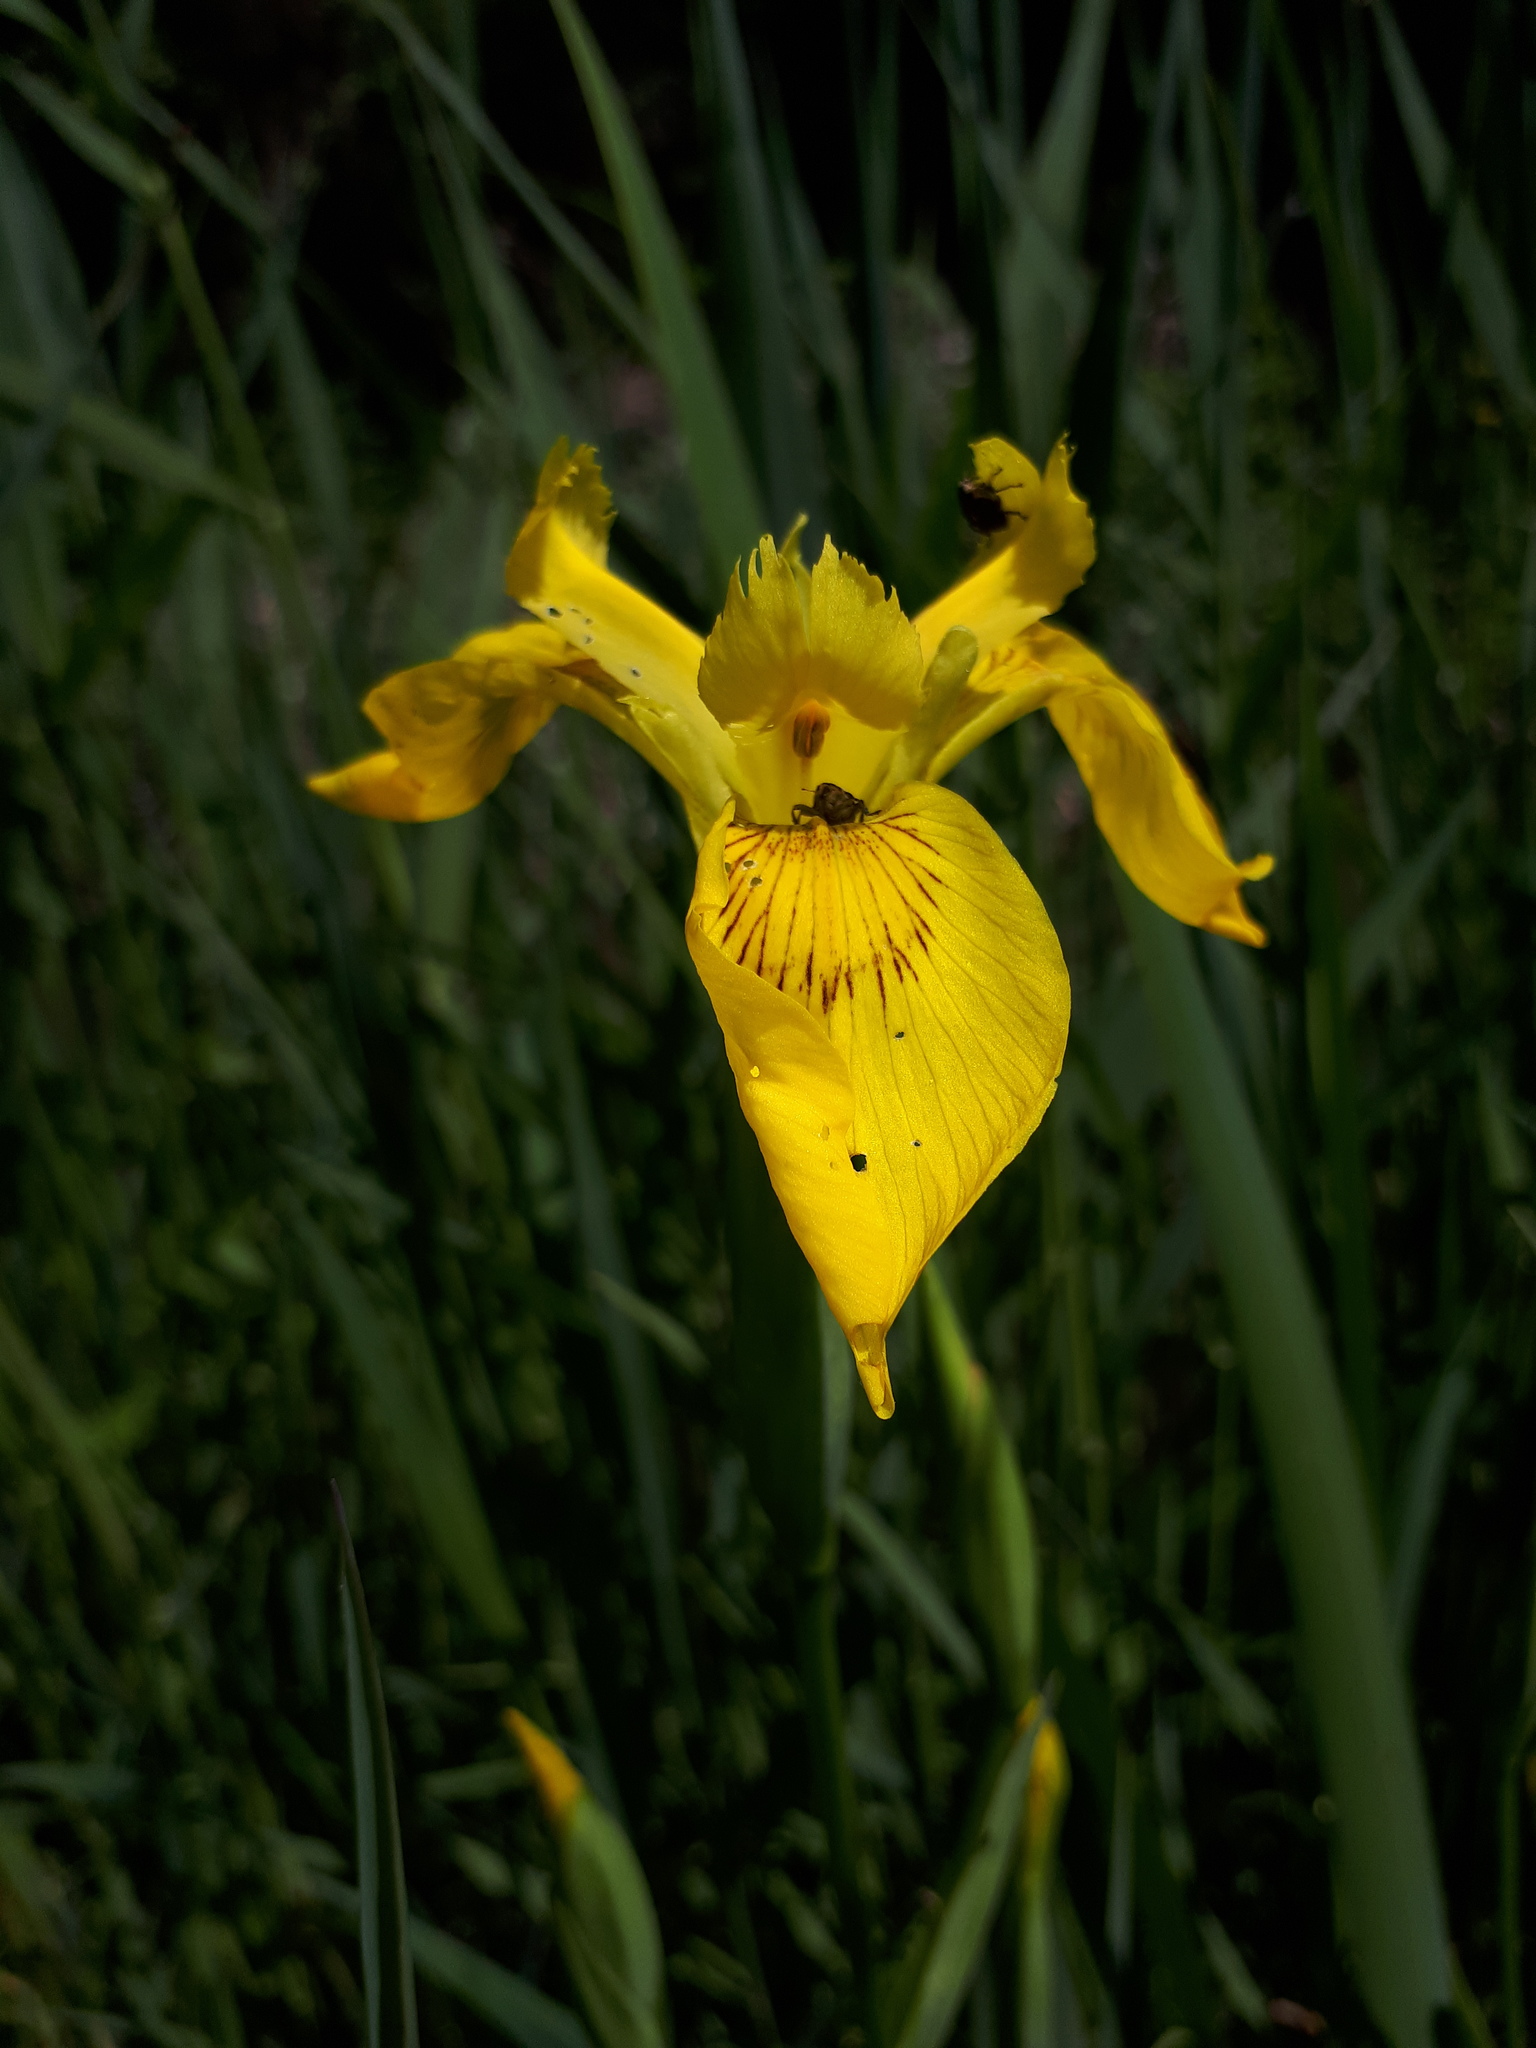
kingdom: Plantae
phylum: Tracheophyta
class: Liliopsida
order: Asparagales
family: Iridaceae
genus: Iris
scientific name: Iris pseudacorus
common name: Yellow flag
